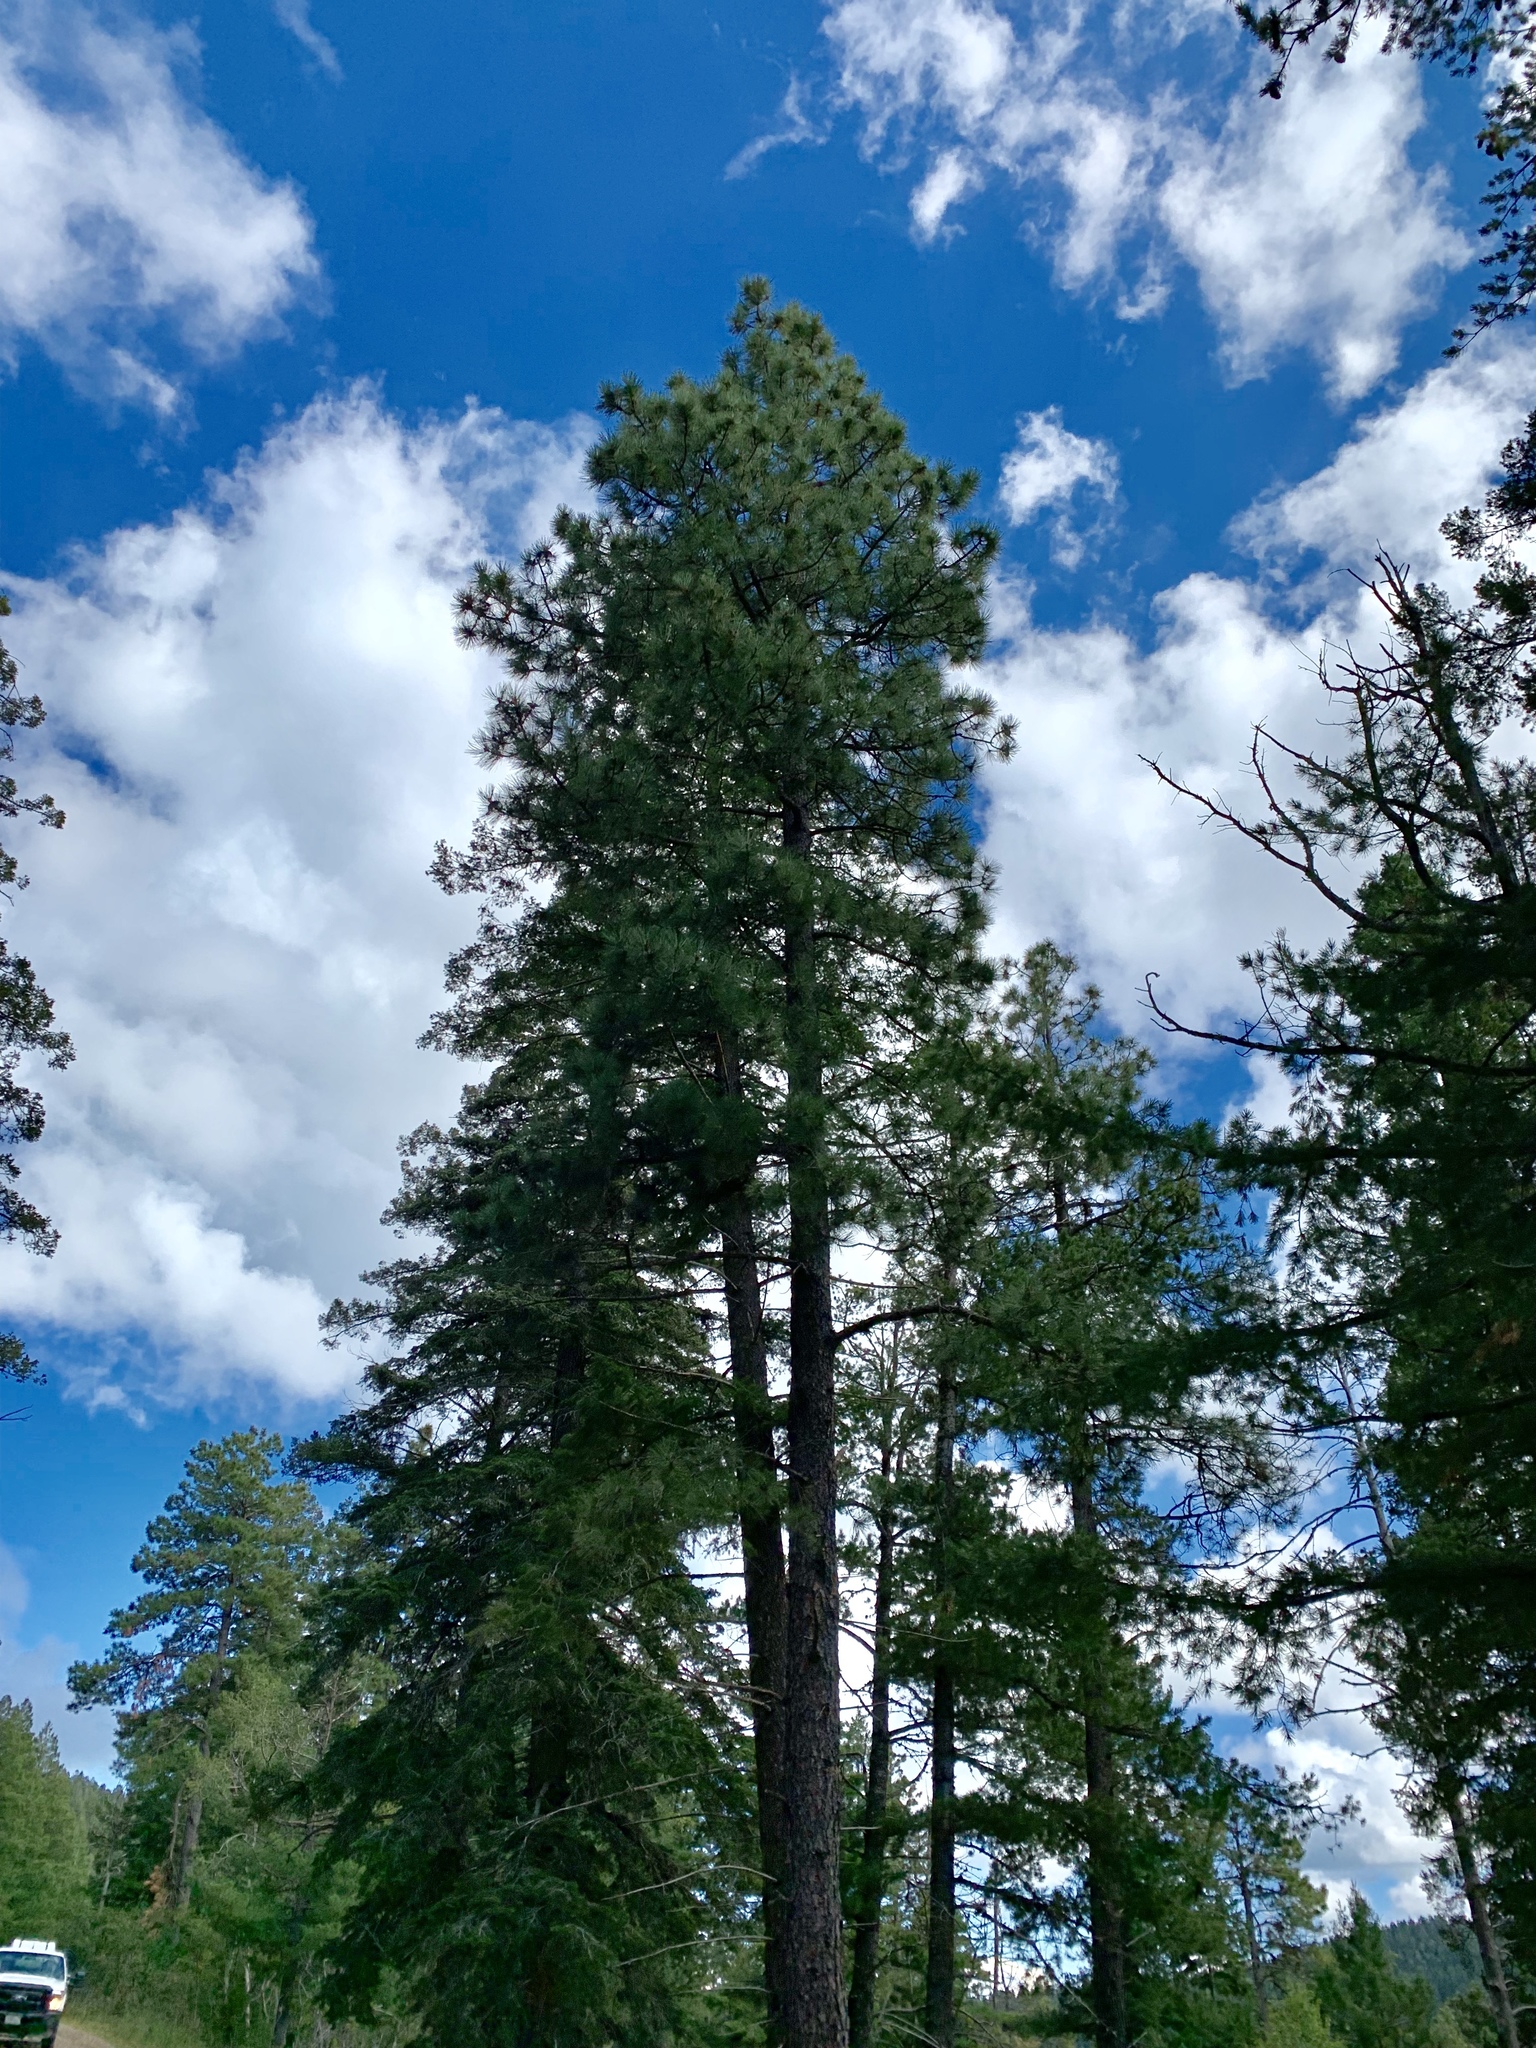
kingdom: Plantae
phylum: Tracheophyta
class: Pinopsida
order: Pinales
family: Pinaceae
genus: Pinus
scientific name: Pinus ponderosa
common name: Western yellow-pine
